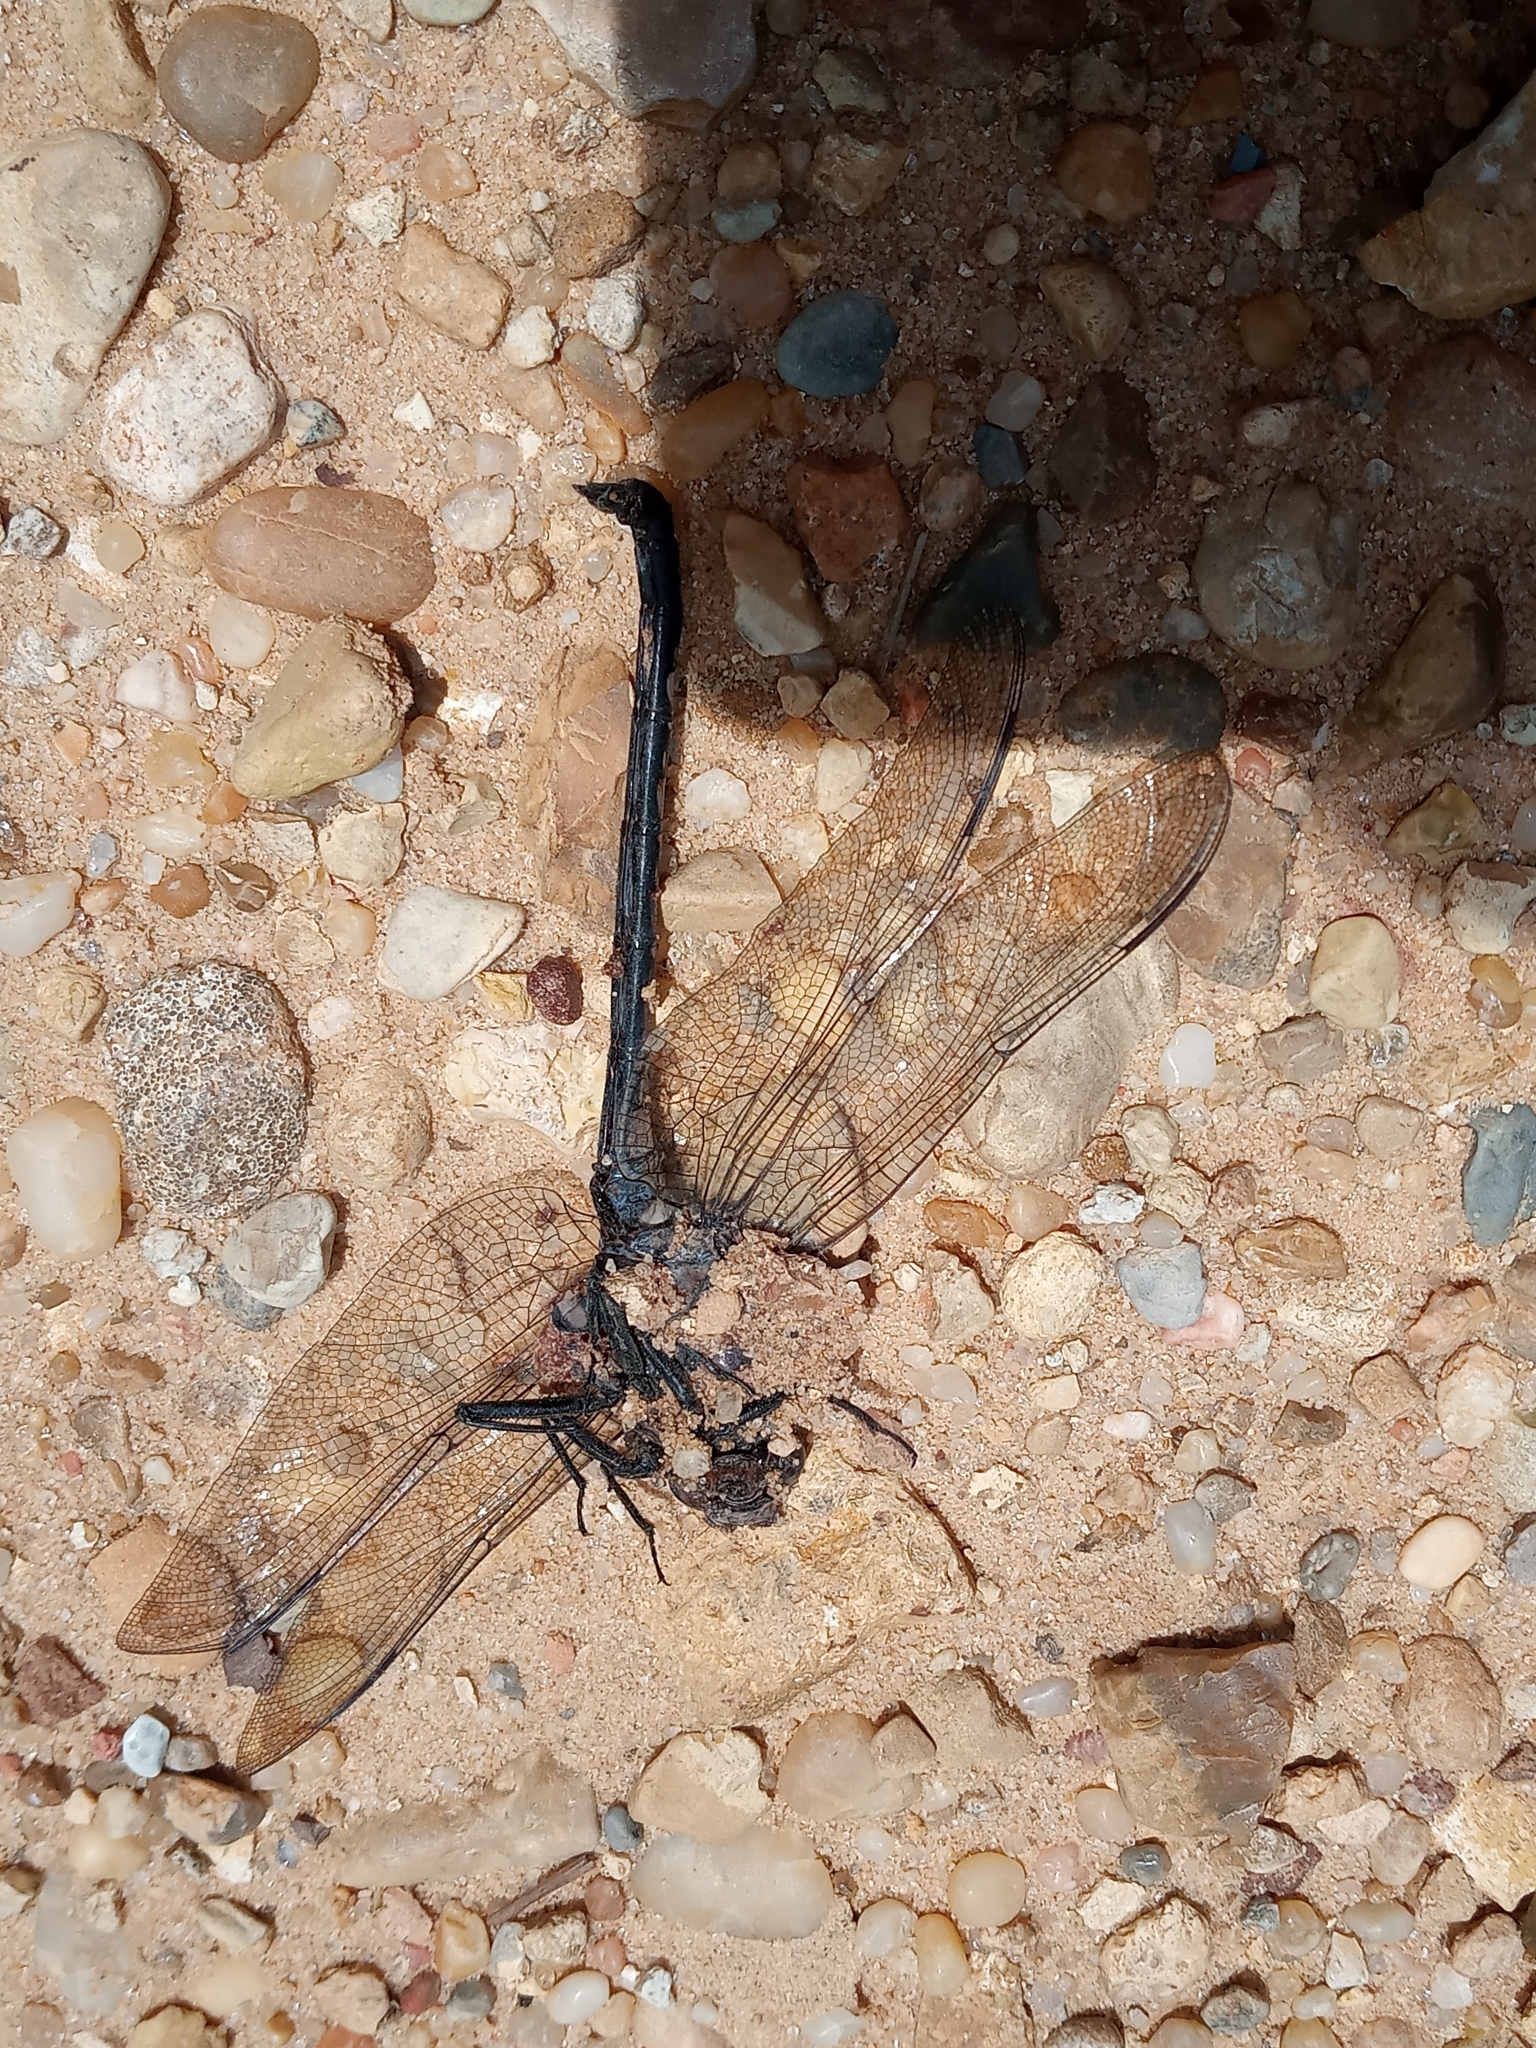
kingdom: Animalia
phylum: Arthropoda
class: Insecta
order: Odonata
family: Petaluridae
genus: Tachopteryx
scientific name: Tachopteryx thoreyi
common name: Gray petaltail
